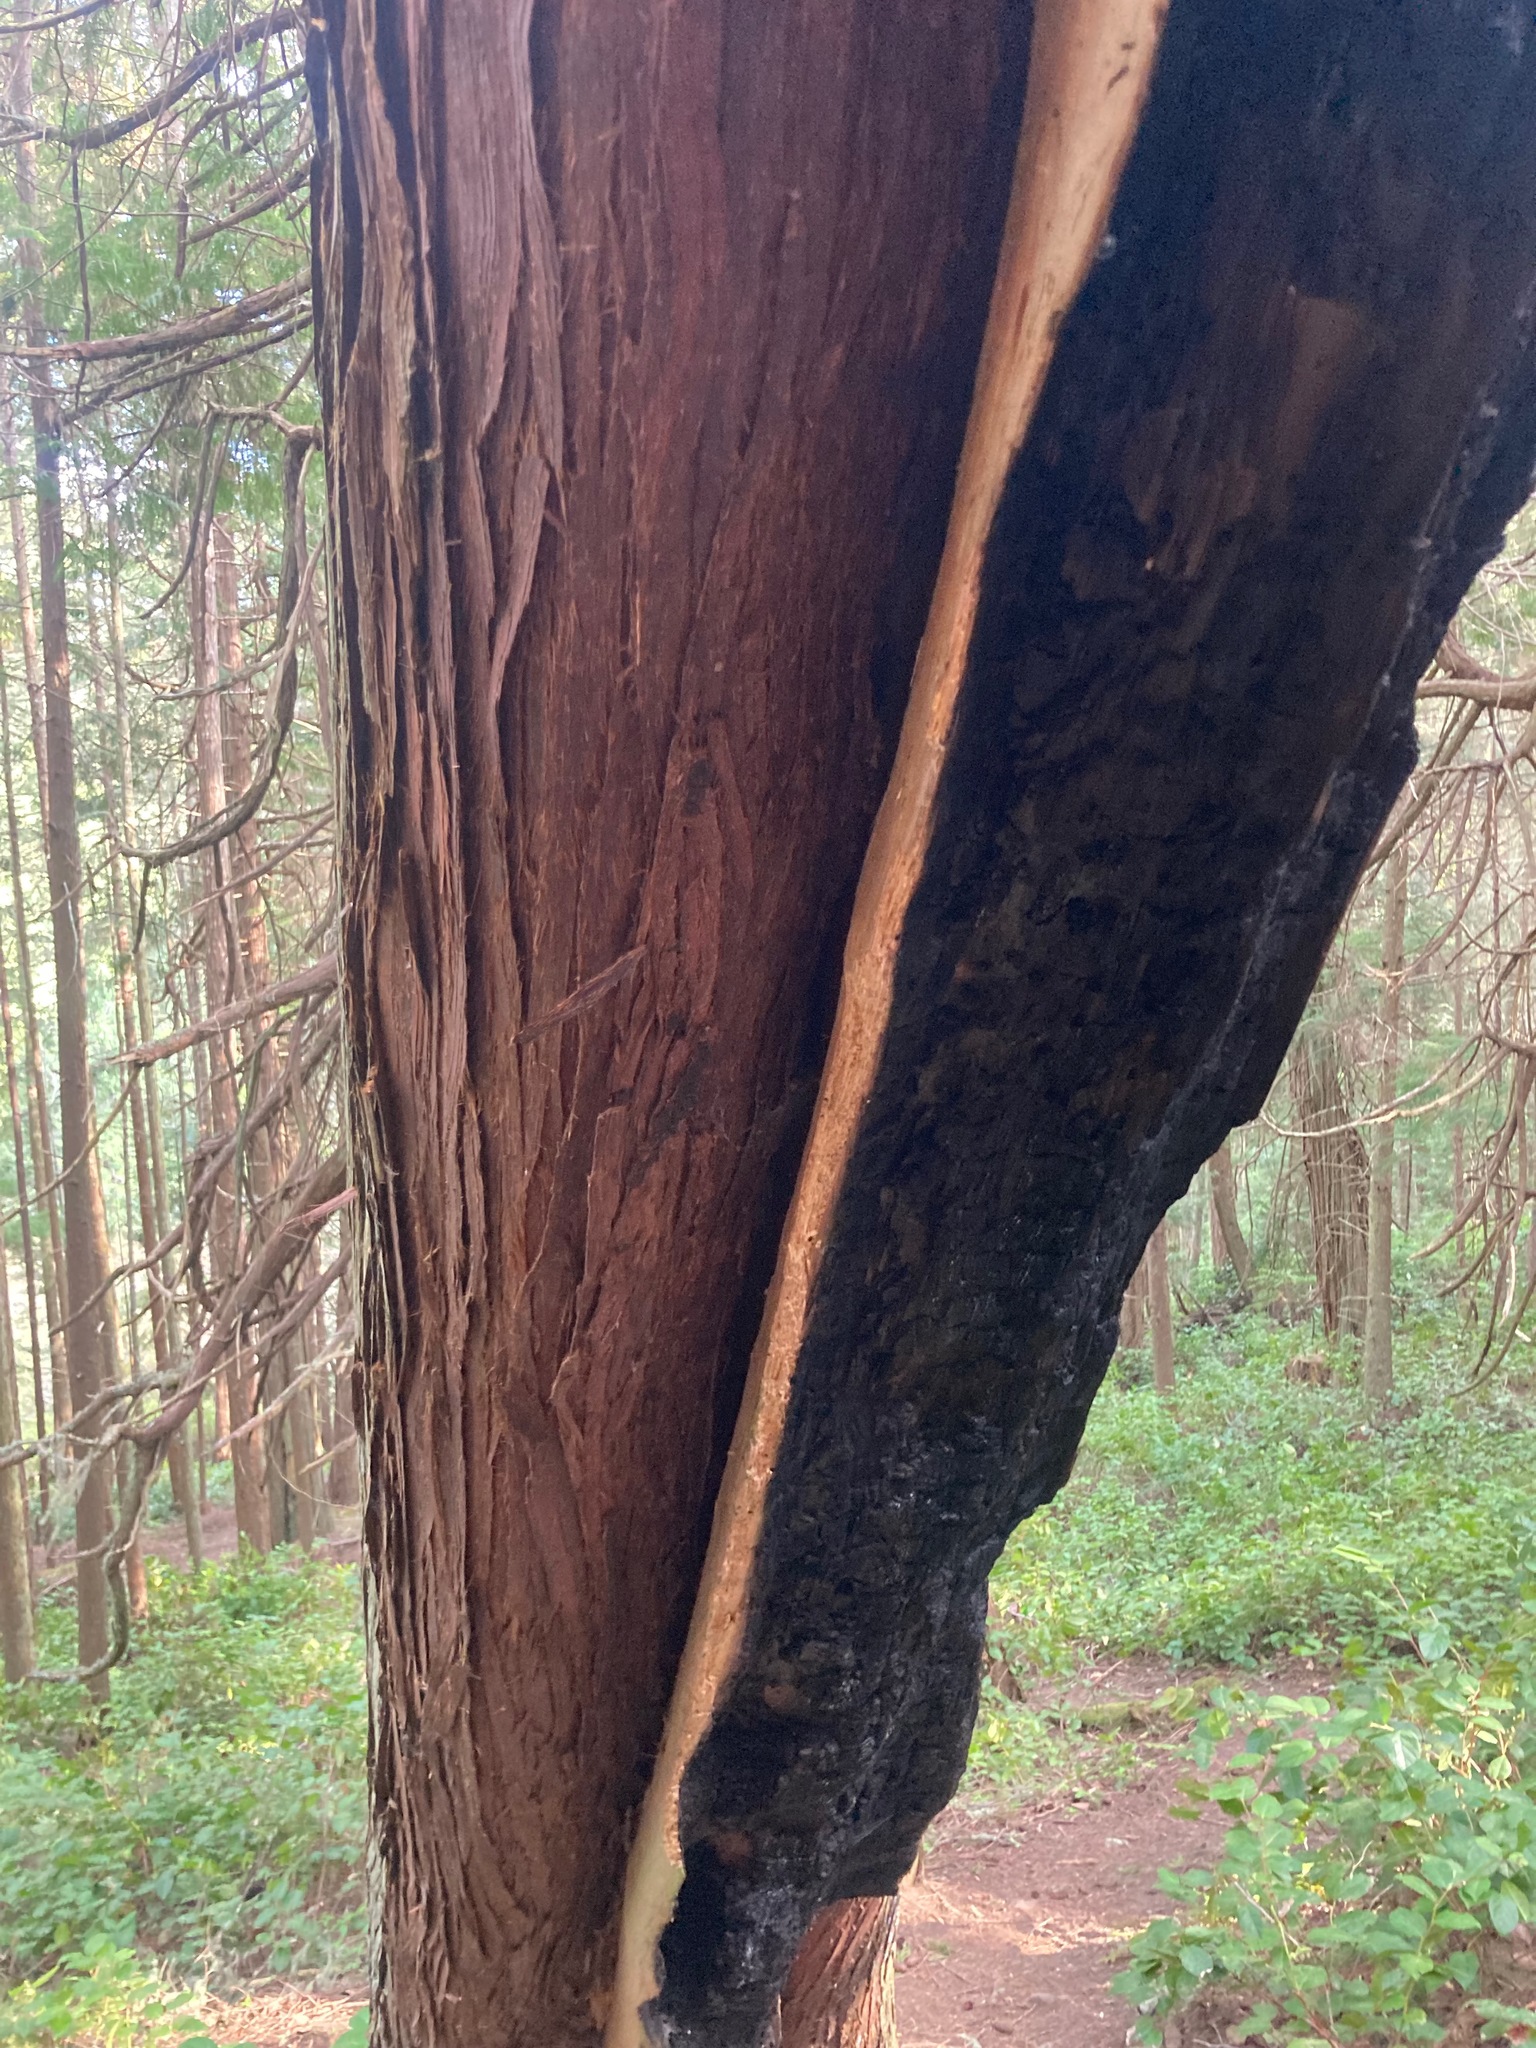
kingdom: Plantae
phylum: Tracheophyta
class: Pinopsida
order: Pinales
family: Cupressaceae
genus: Thuja
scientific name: Thuja plicata
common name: Western red-cedar
